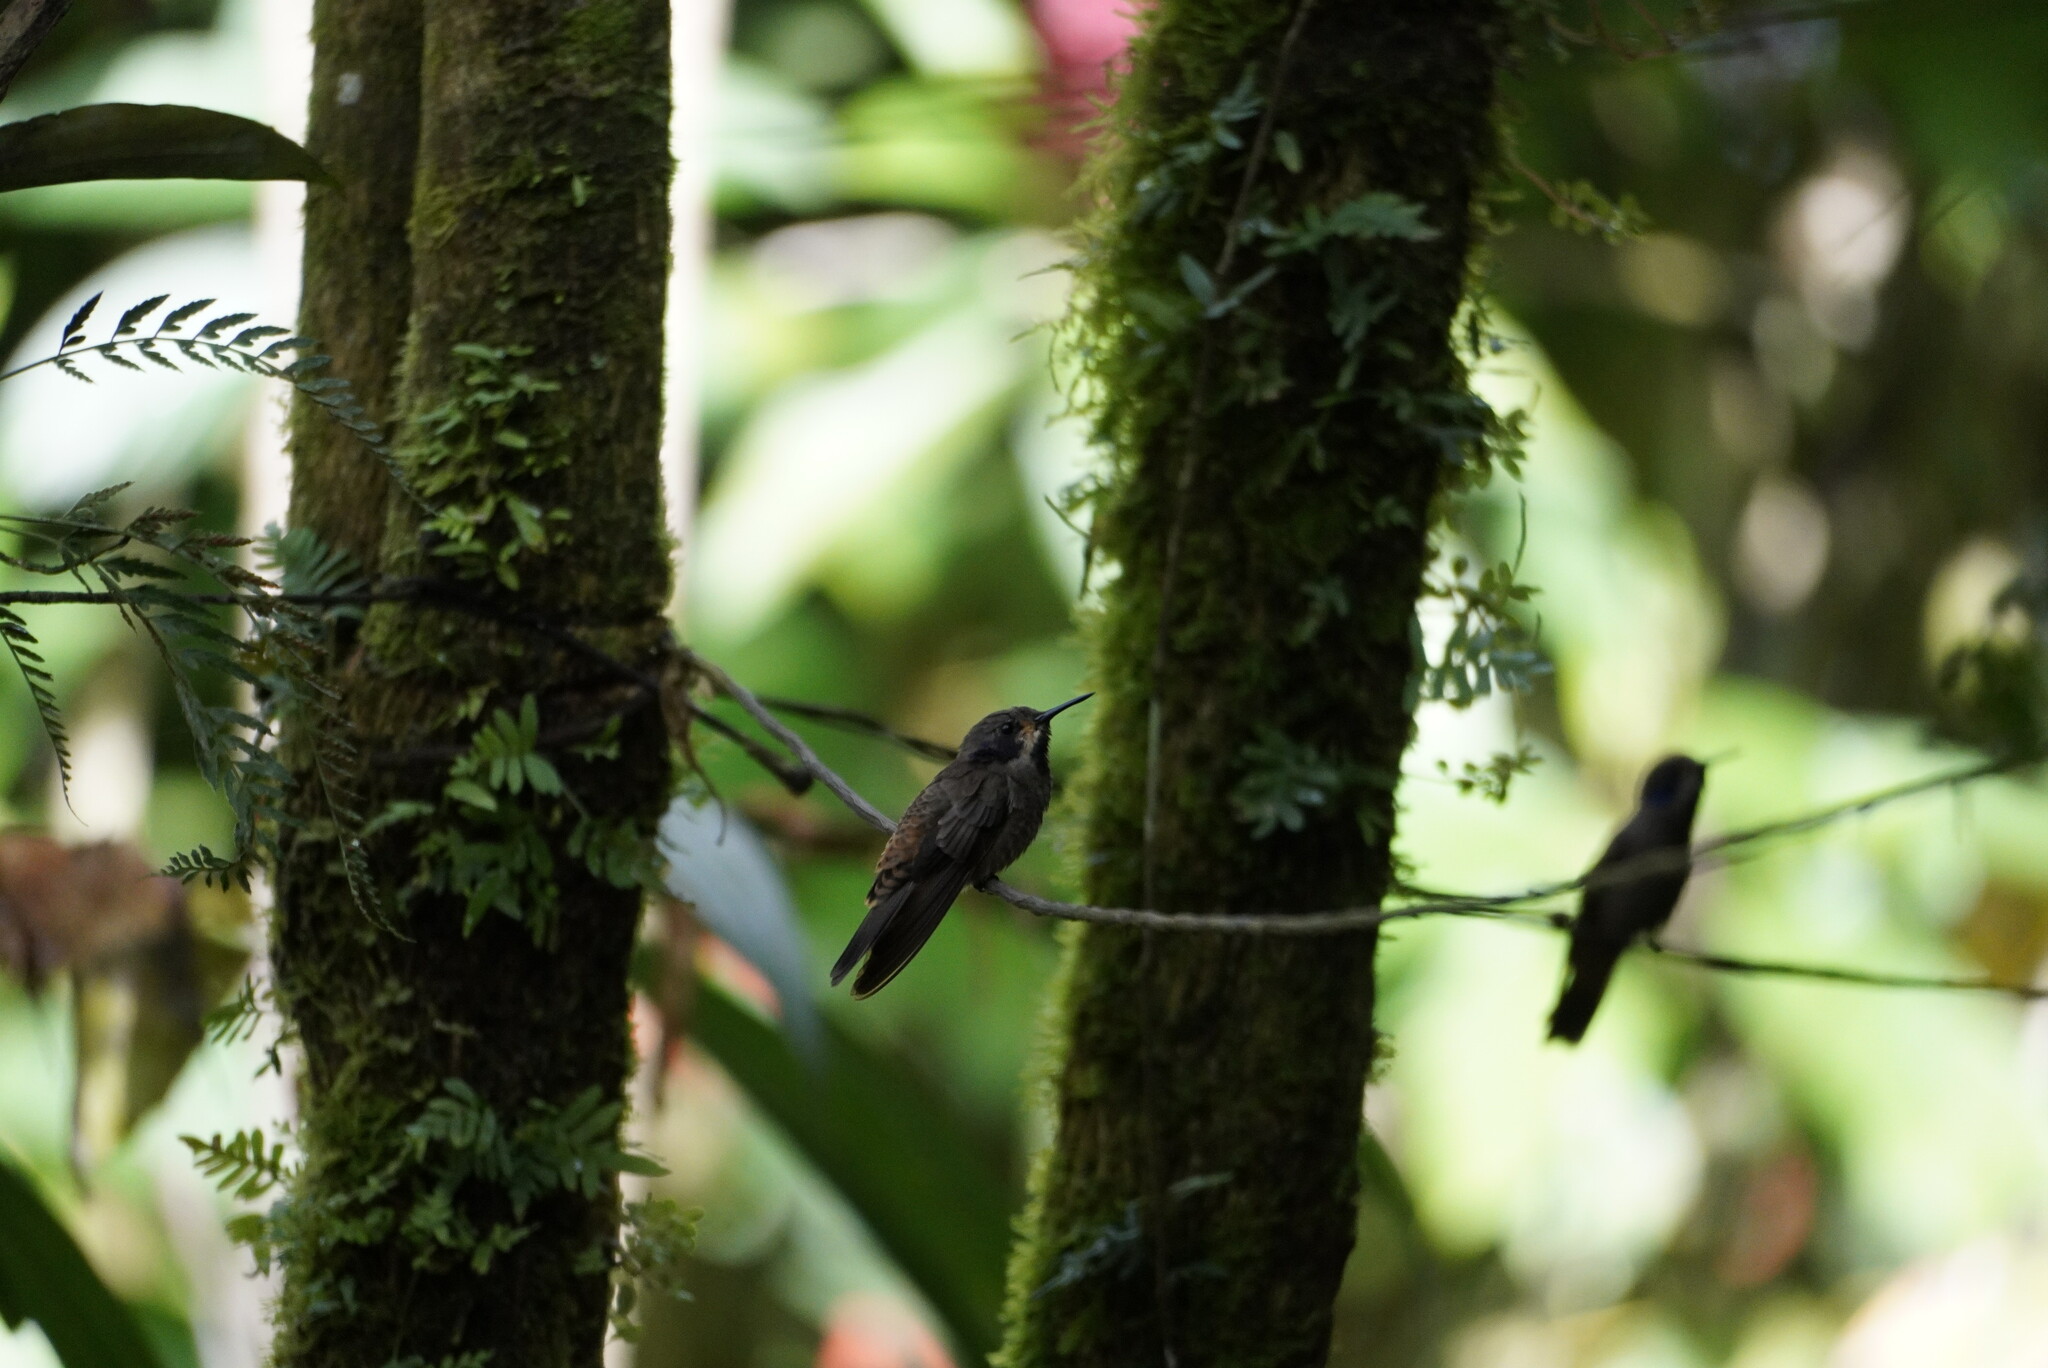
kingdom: Animalia
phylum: Chordata
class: Aves
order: Apodiformes
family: Trochilidae
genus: Colibri
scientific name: Colibri delphinae
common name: Brown violetear
